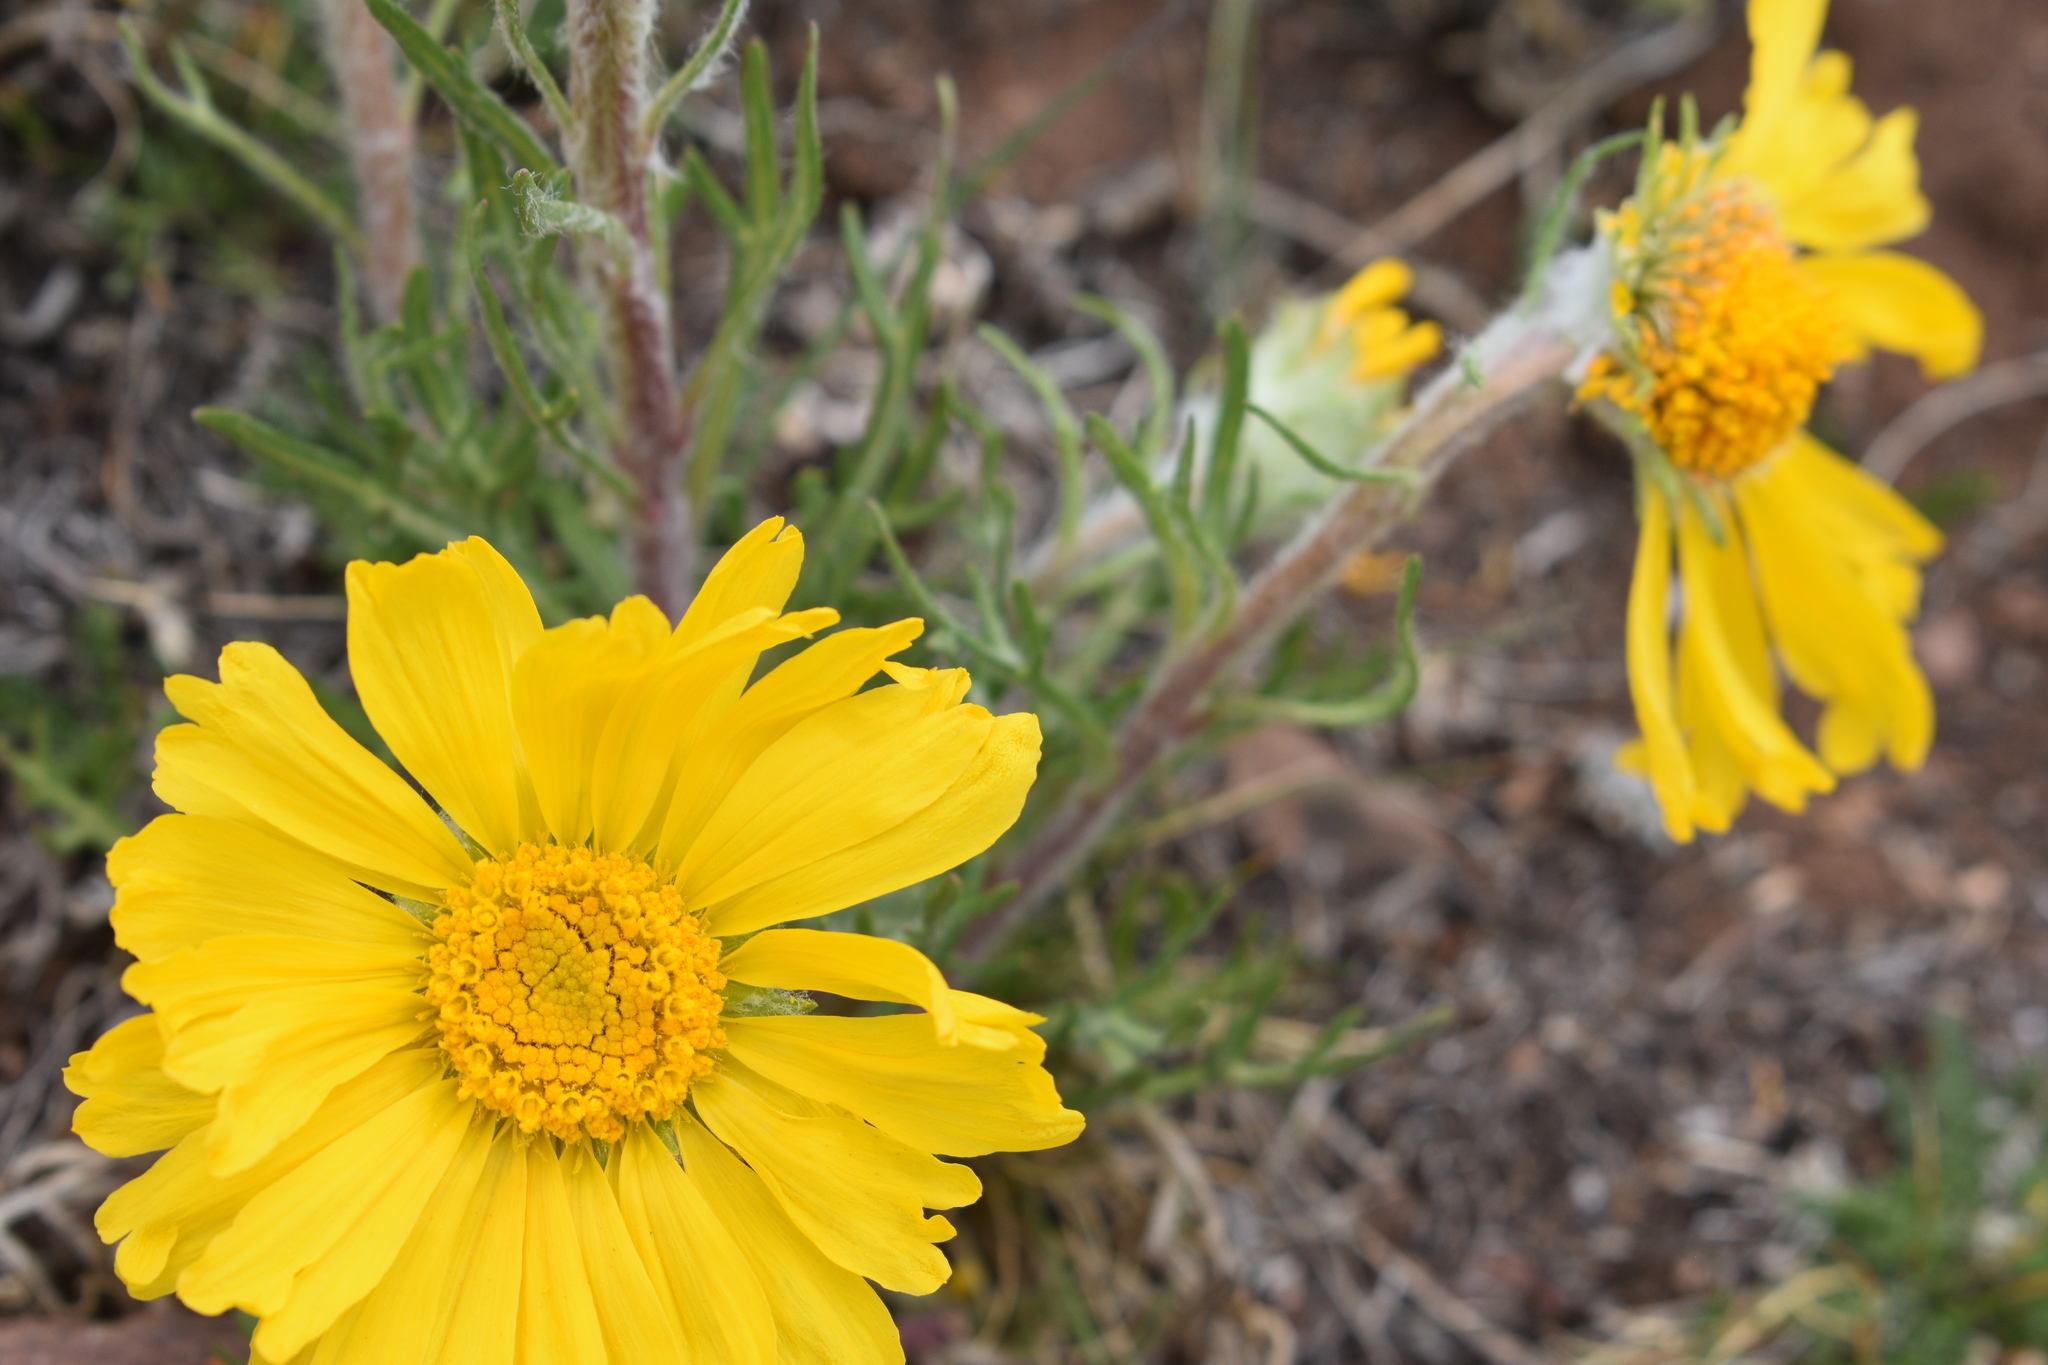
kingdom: Plantae
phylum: Tracheophyta
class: Magnoliopsida
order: Asterales
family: Asteraceae
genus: Hymenoxys
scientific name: Hymenoxys grandiflora
